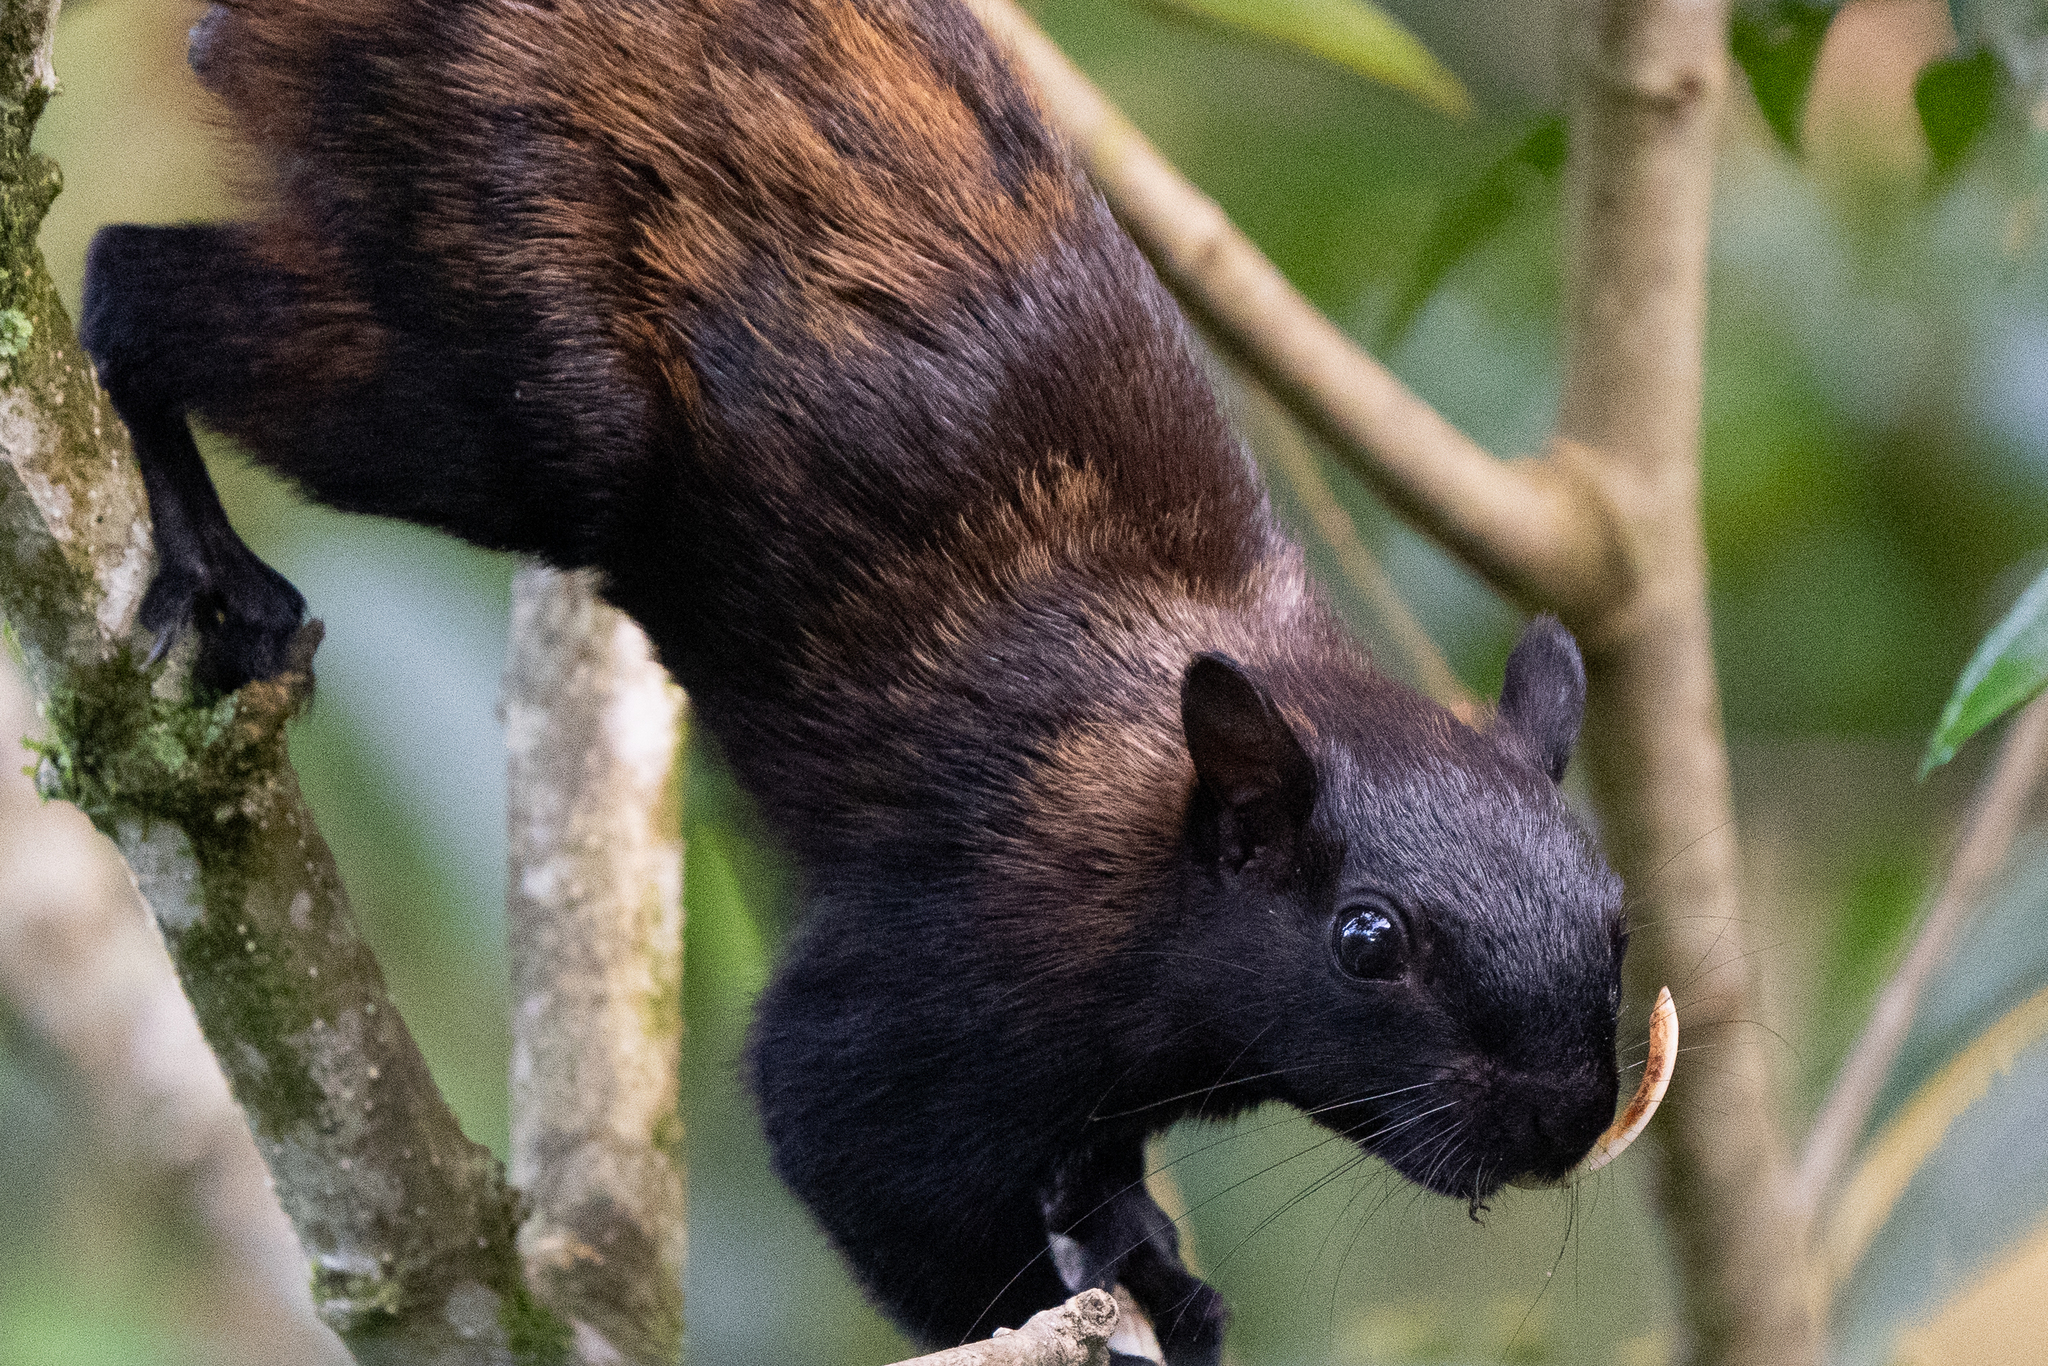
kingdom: Animalia
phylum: Chordata
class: Mammalia
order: Rodentia
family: Sciuridae
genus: Sciurus
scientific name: Sciurus variegatoides
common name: Variegated squirrel
